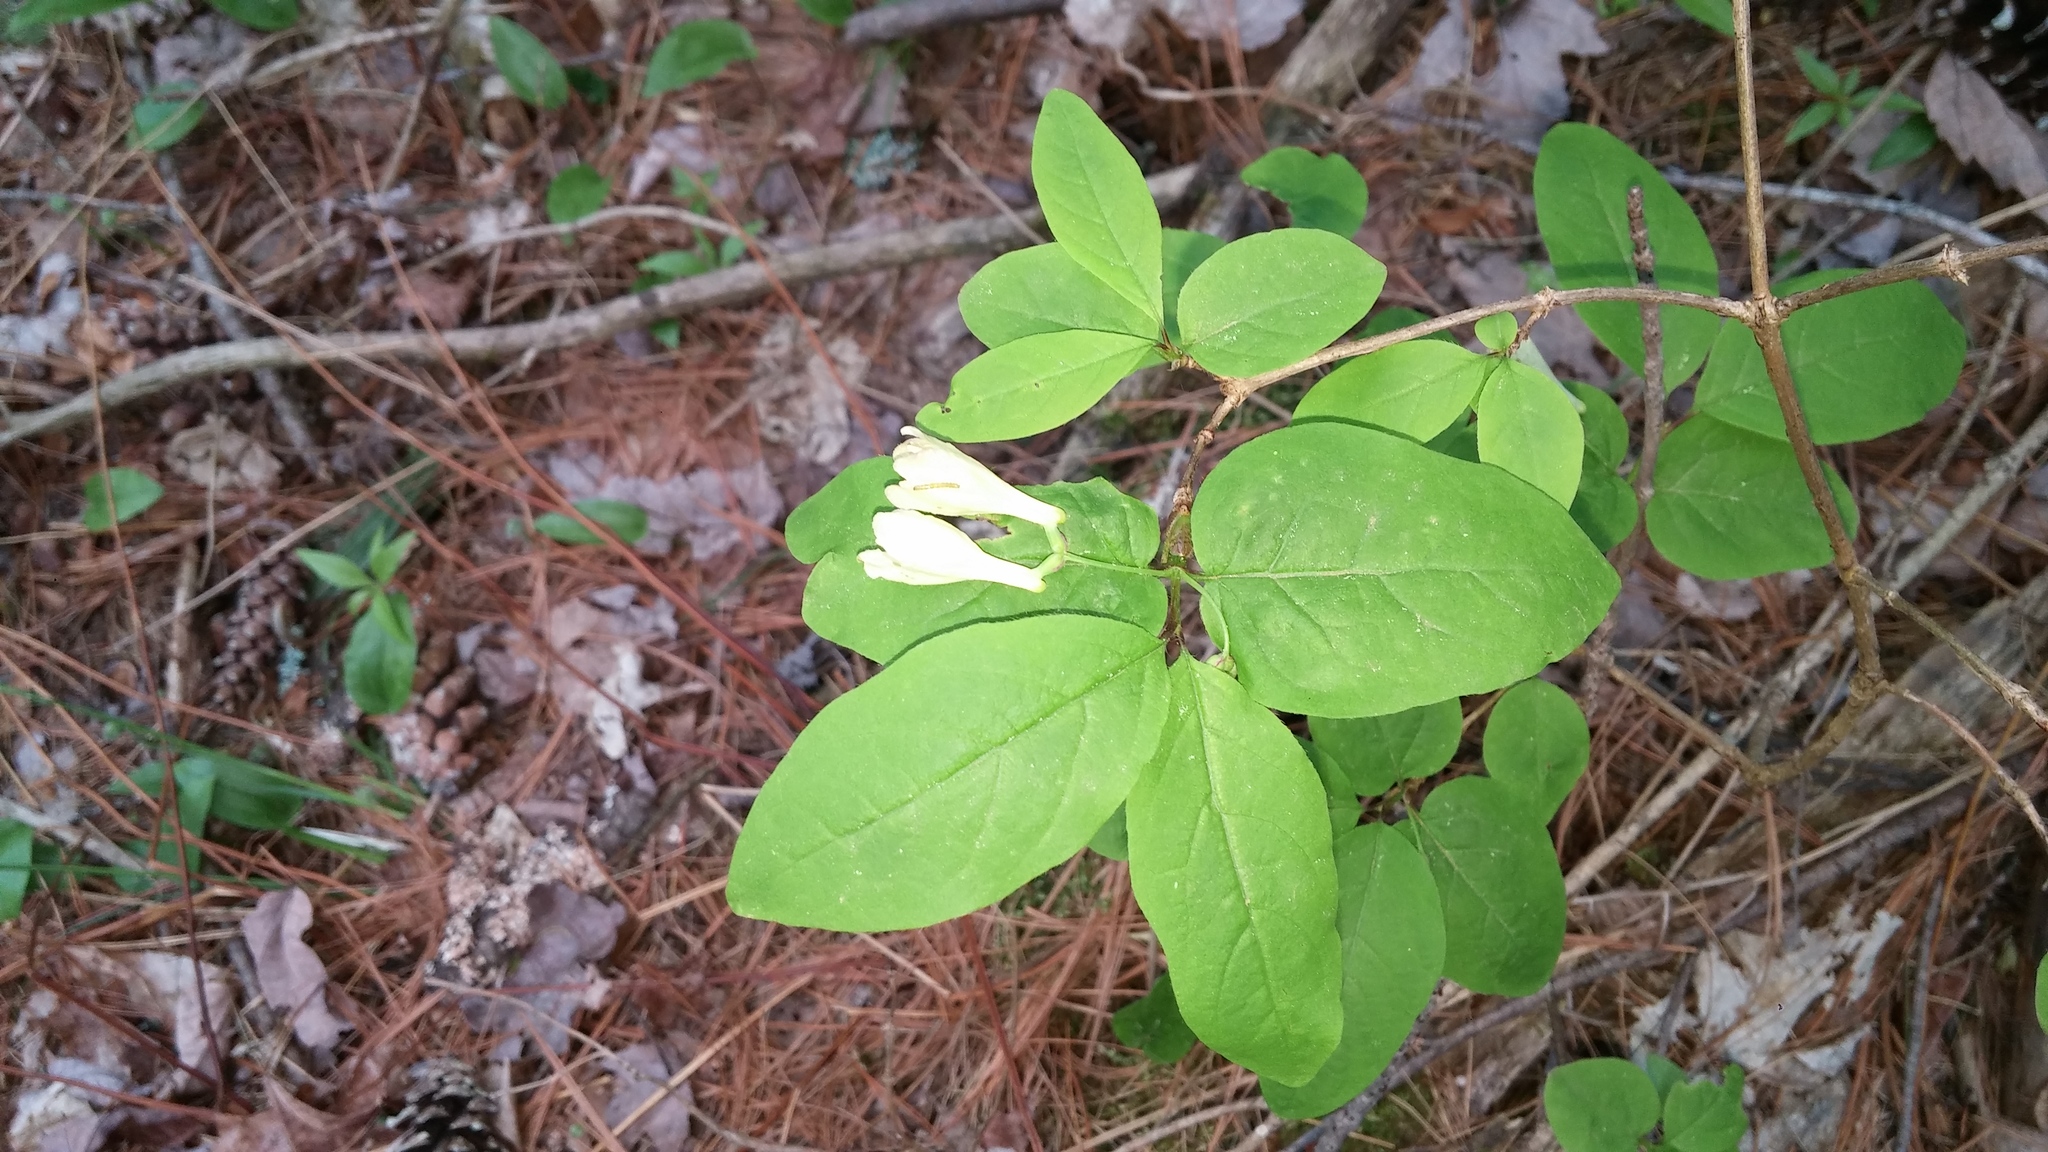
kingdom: Plantae
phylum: Tracheophyta
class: Magnoliopsida
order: Dipsacales
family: Caprifoliaceae
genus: Lonicera
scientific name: Lonicera canadensis
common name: American fly-honeysuckle
